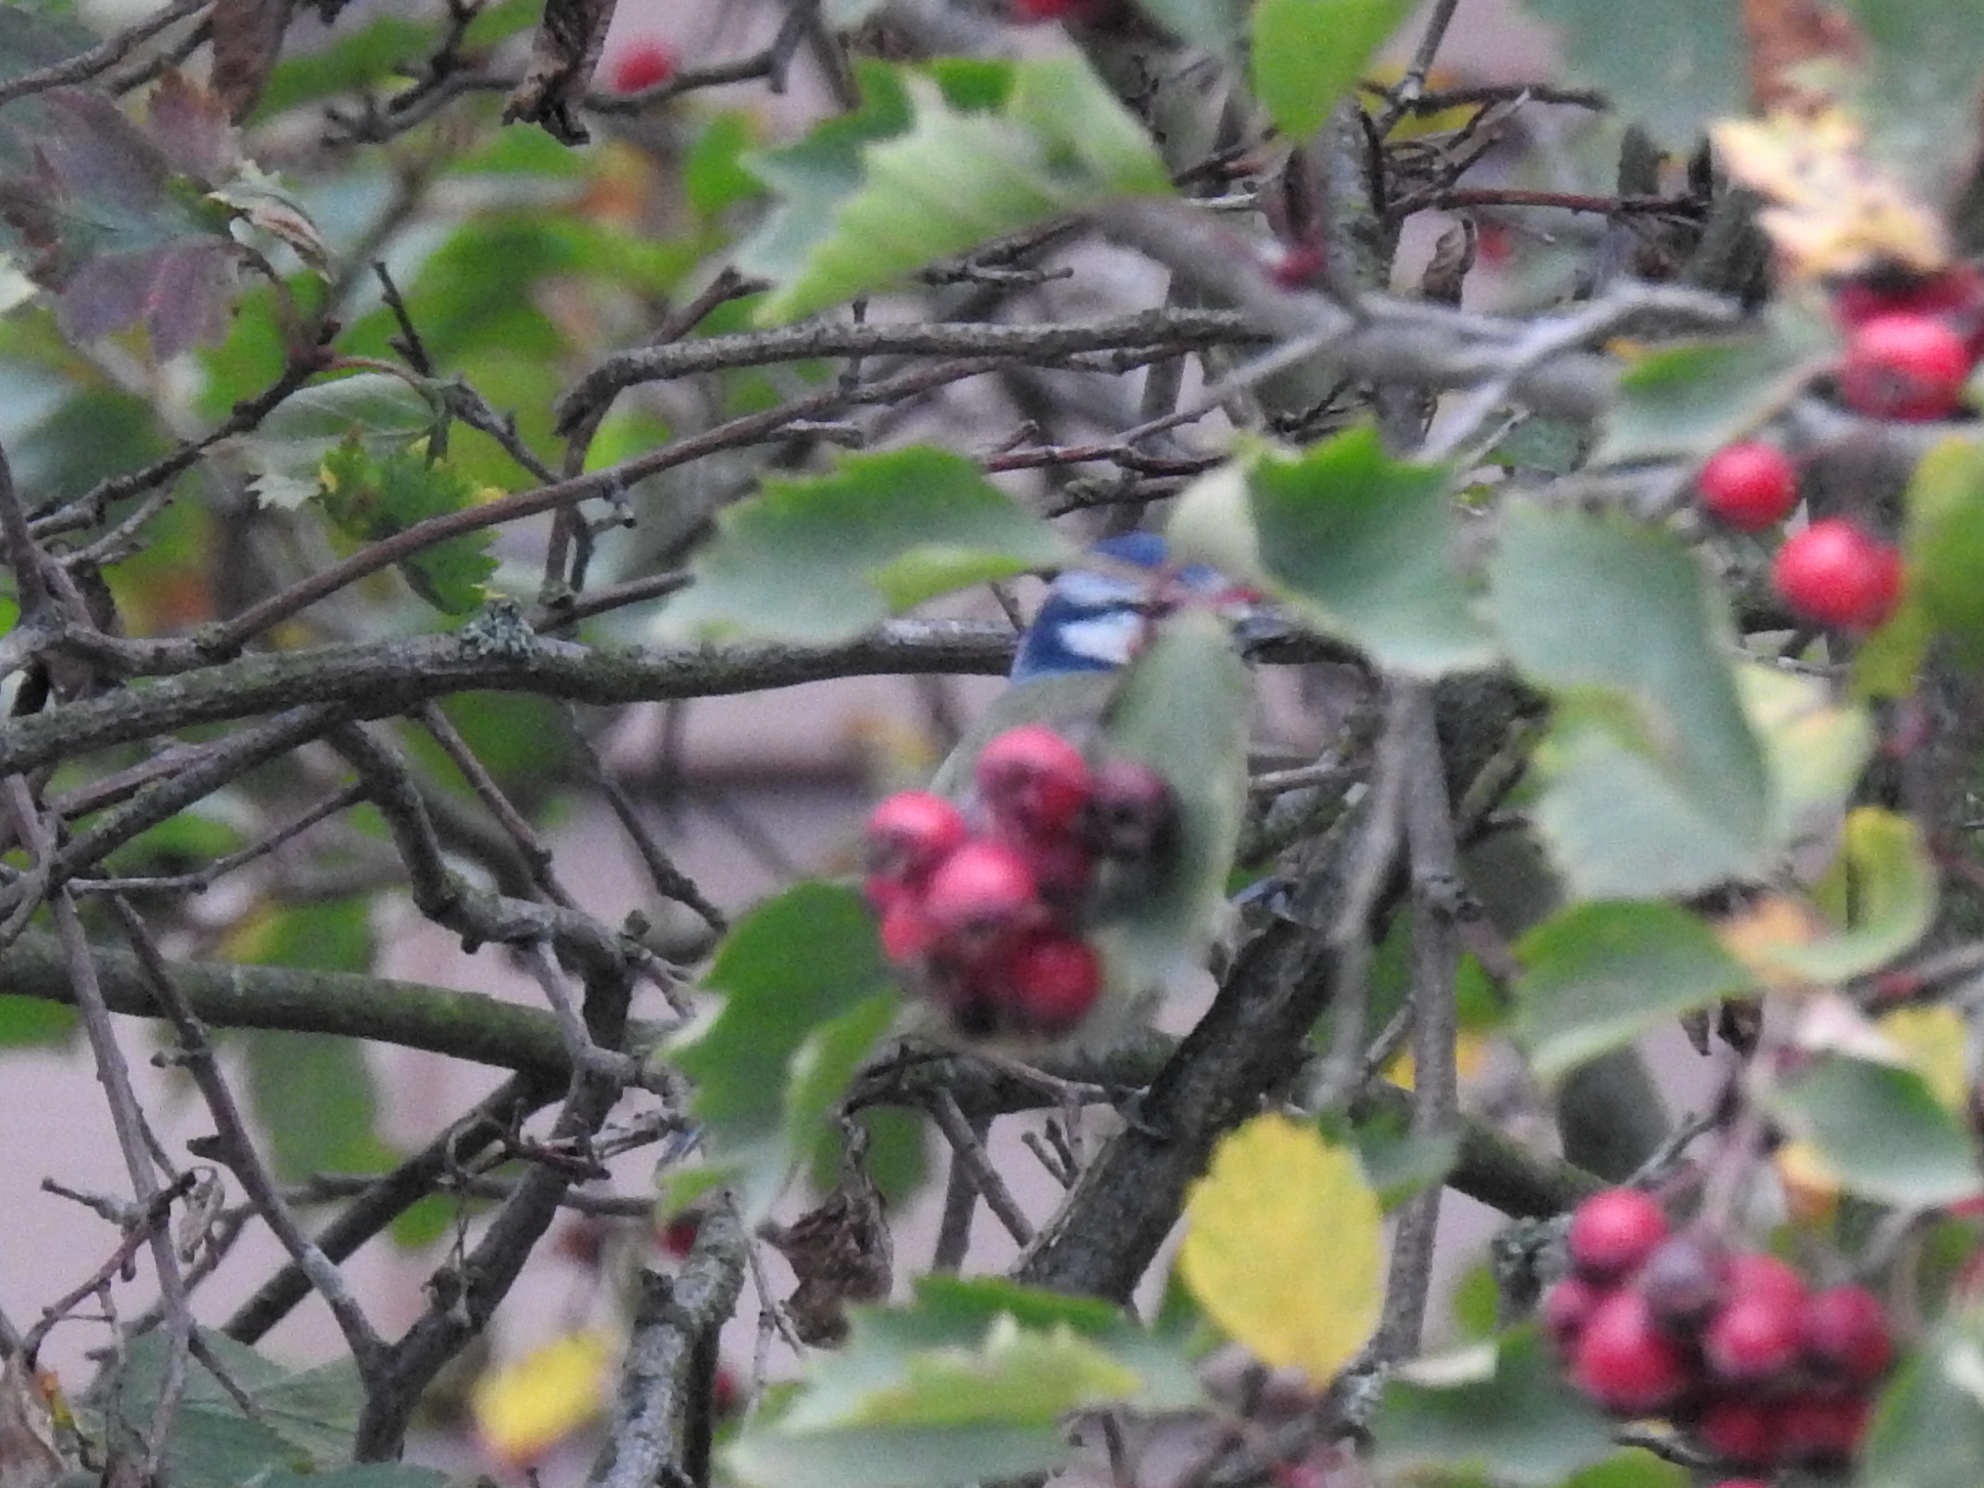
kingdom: Animalia
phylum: Chordata
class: Aves
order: Passeriformes
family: Paridae
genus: Cyanistes
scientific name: Cyanistes caeruleus
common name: Eurasian blue tit
